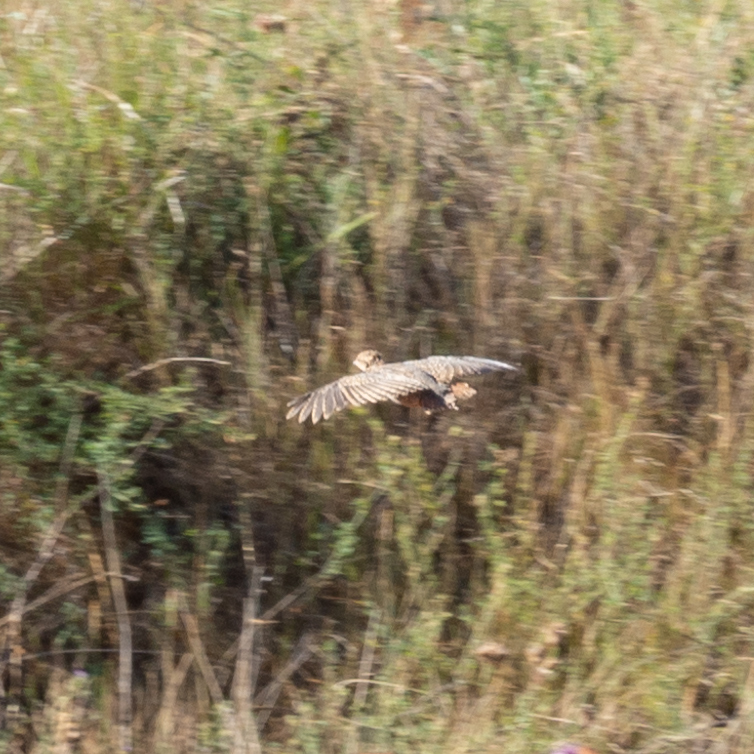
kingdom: Animalia
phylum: Chordata
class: Aves
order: Galliformes
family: Phasianidae
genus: Alectoris
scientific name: Alectoris rufa
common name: Red-legged partridge
